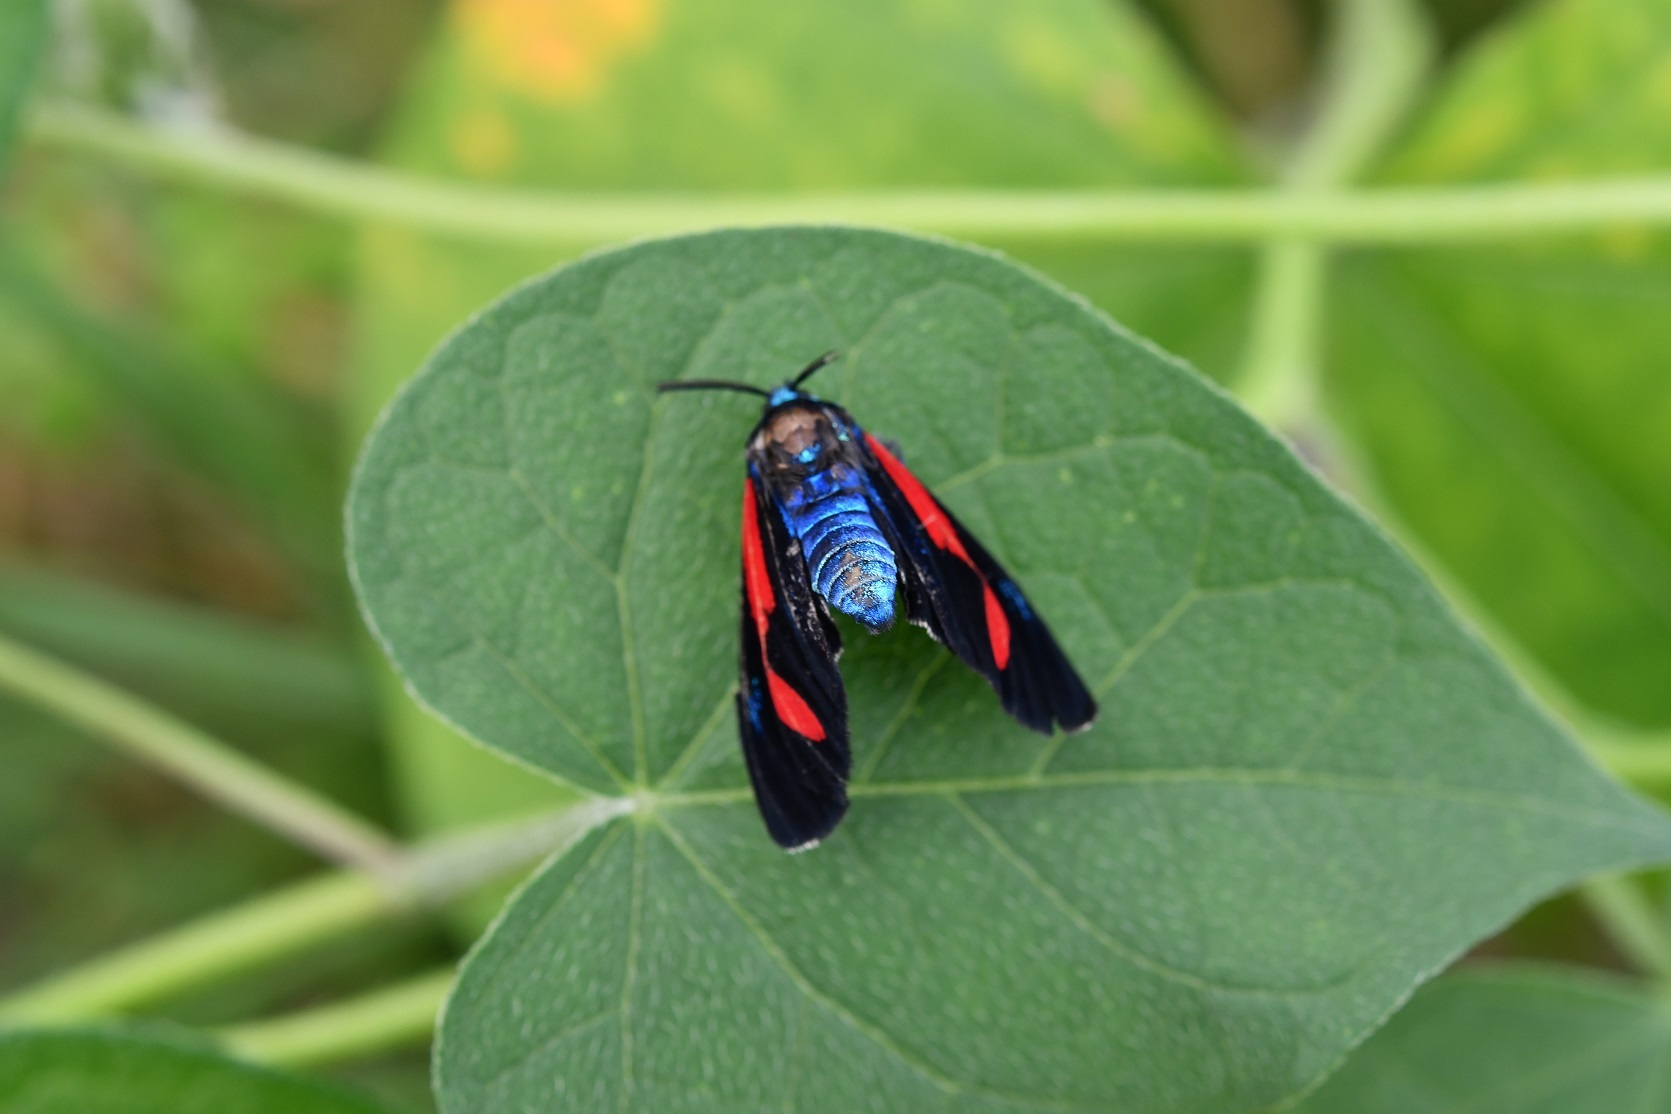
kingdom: Animalia
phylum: Arthropoda
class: Insecta
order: Lepidoptera
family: Erebidae
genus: Cyanopepla
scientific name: Cyanopepla bella
